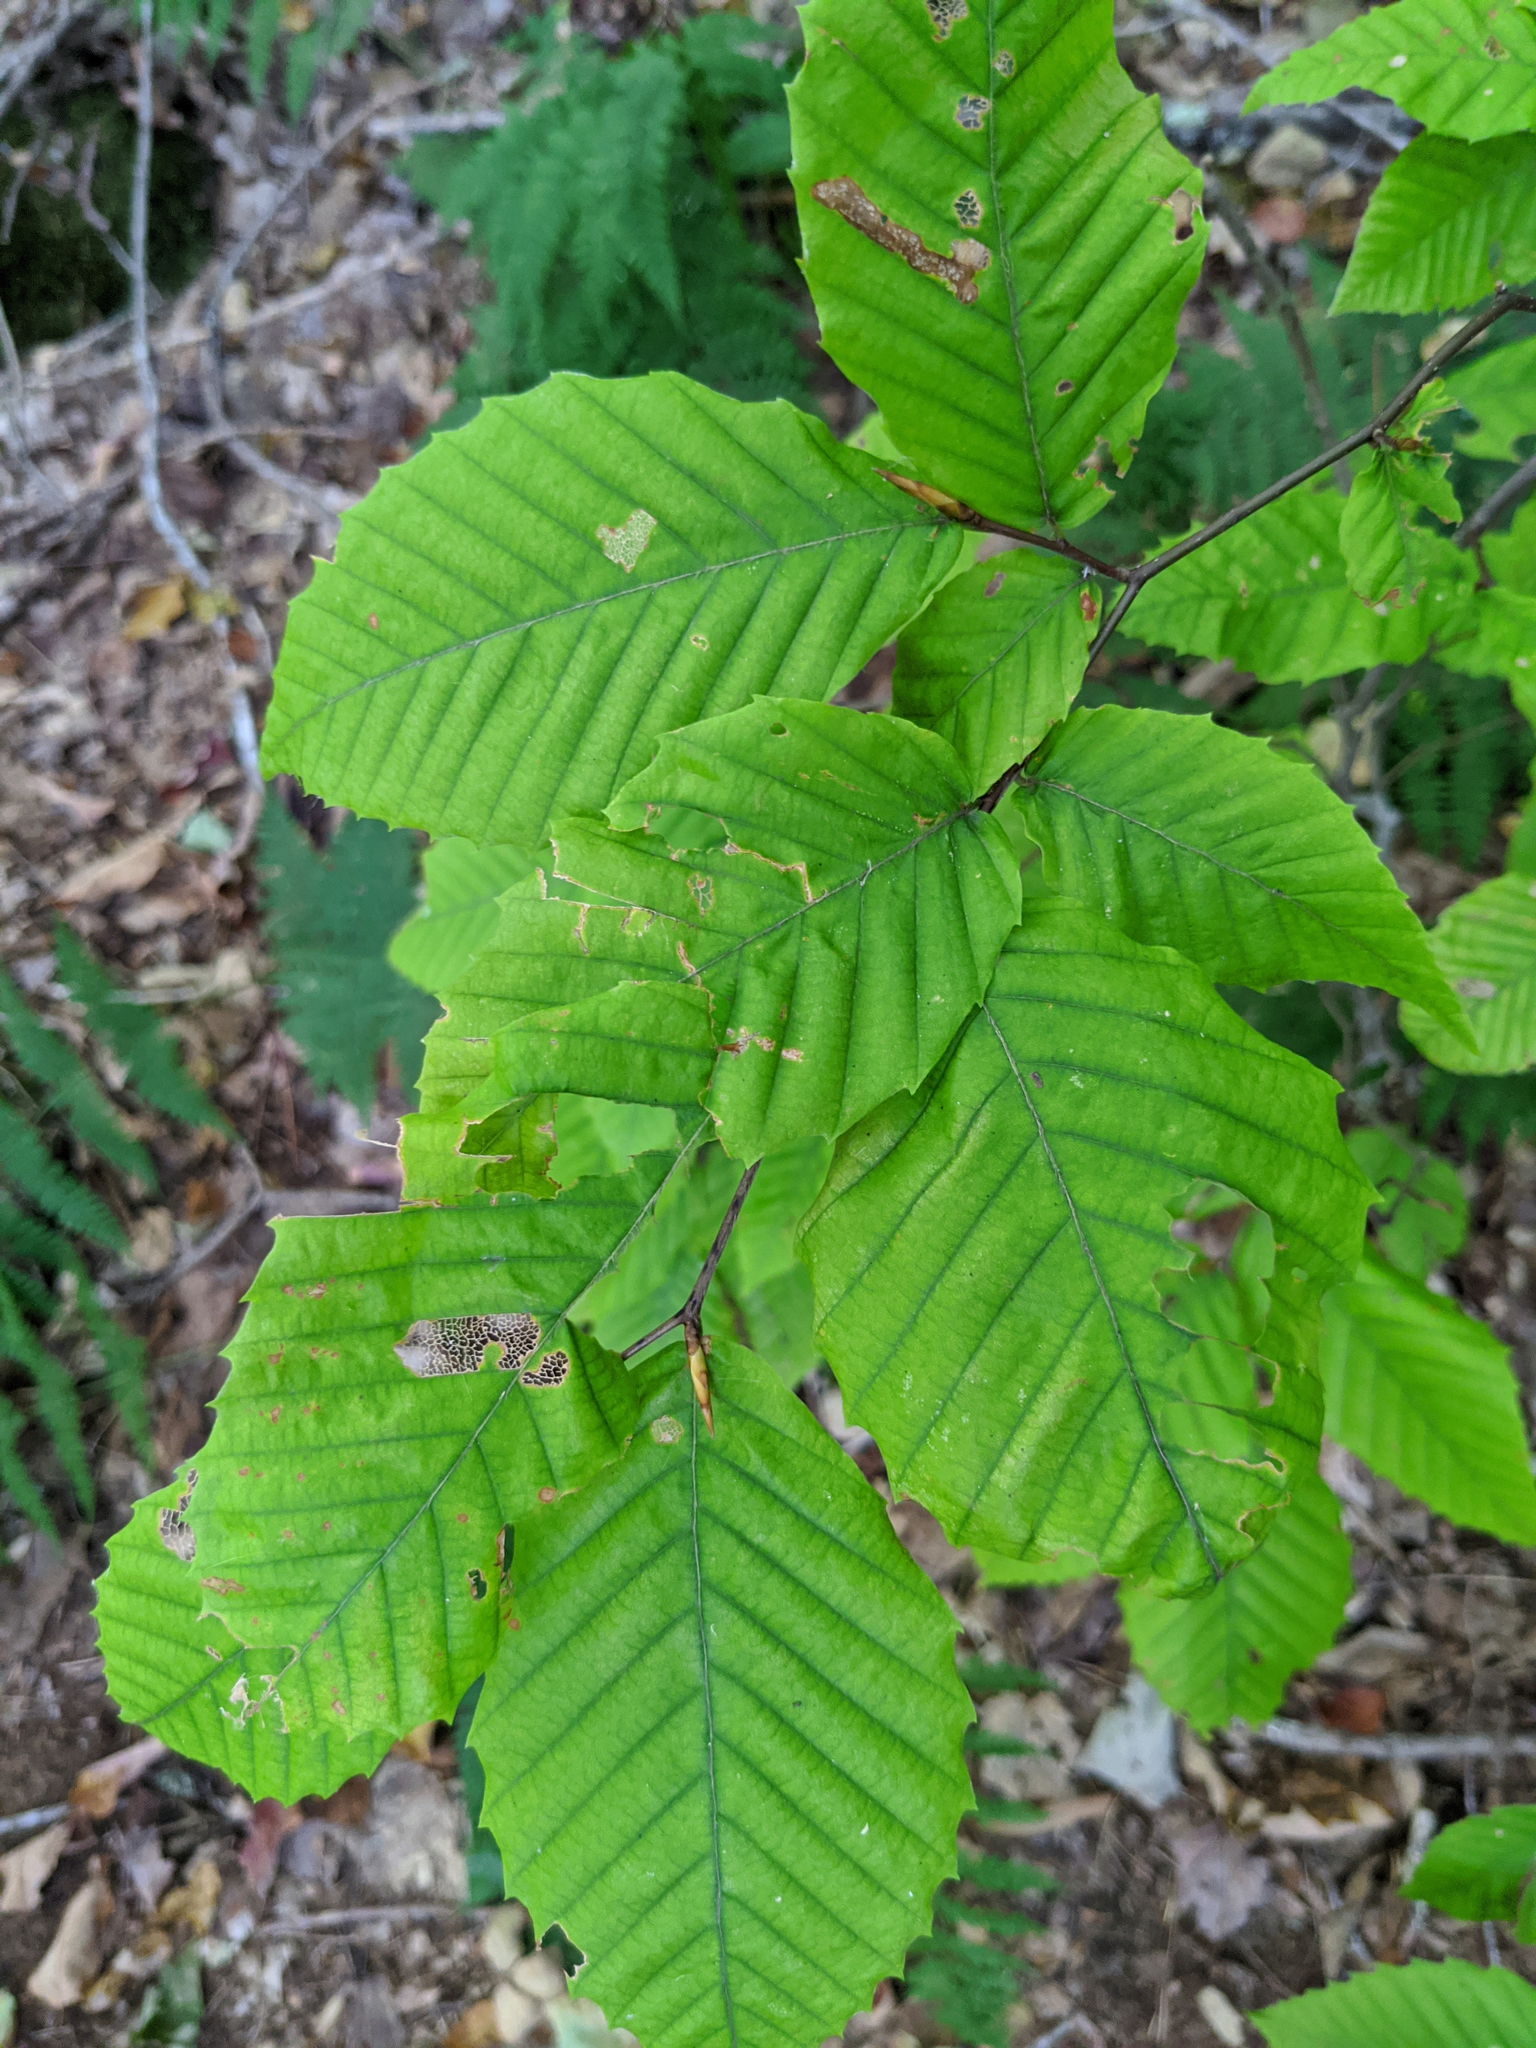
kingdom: Plantae
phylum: Tracheophyta
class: Magnoliopsida
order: Fagales
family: Fagaceae
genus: Fagus
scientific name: Fagus grandifolia
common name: American beech
